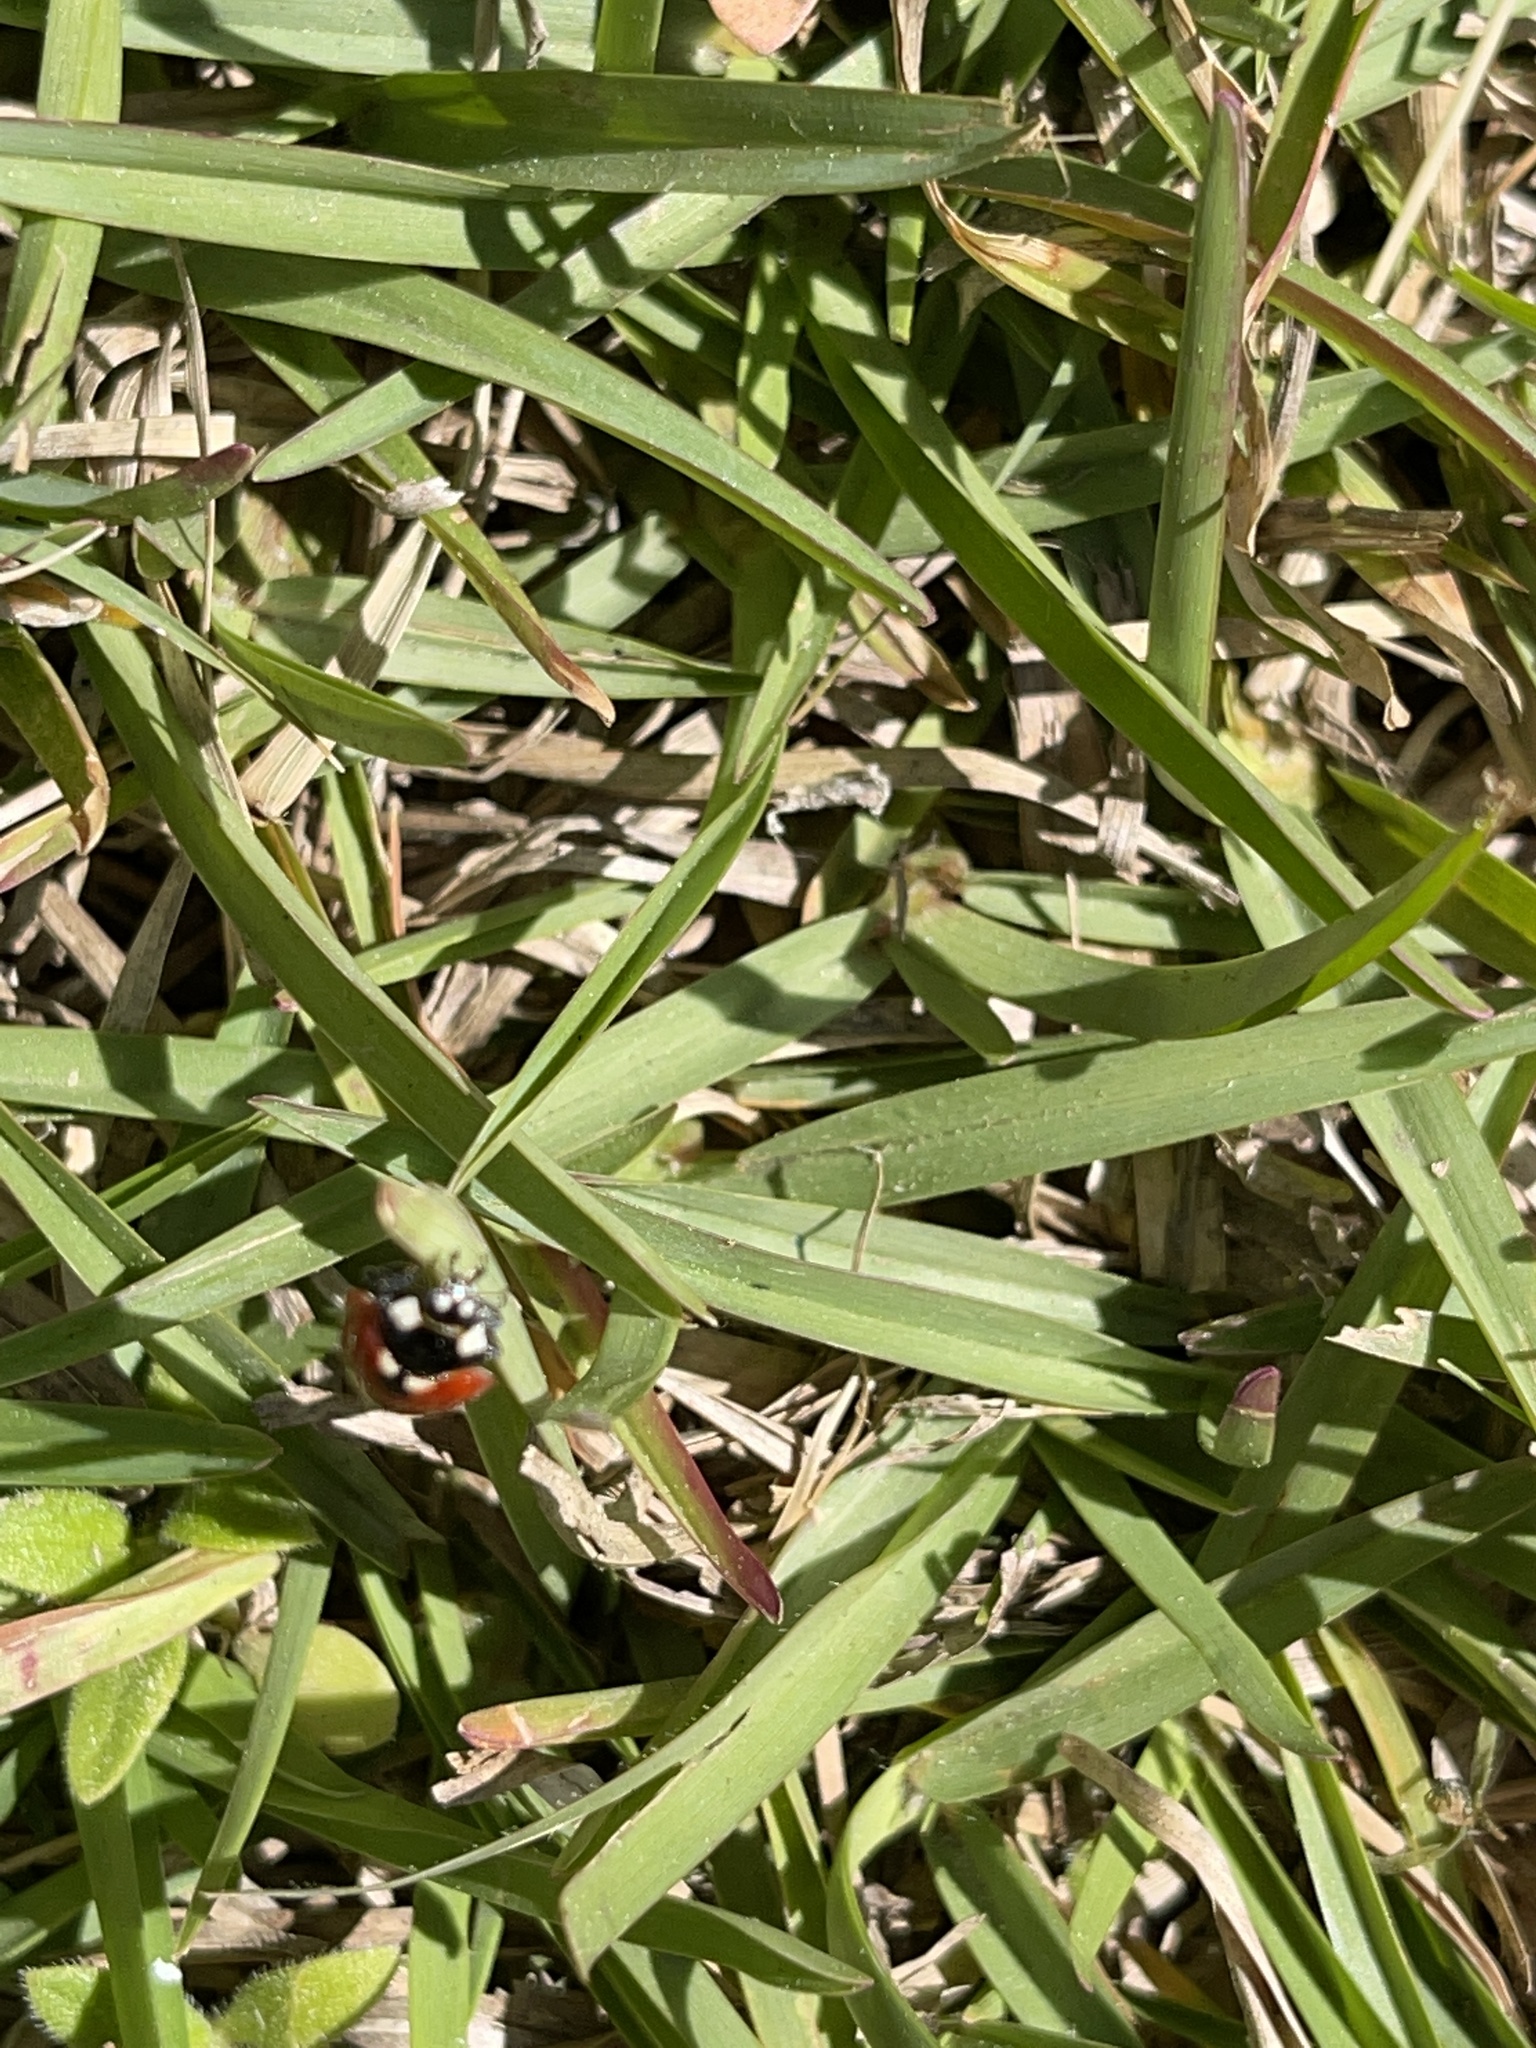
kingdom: Animalia
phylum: Arthropoda
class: Insecta
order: Coleoptera
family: Coccinellidae
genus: Coccinella
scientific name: Coccinella septempunctata
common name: Sevenspotted lady beetle
